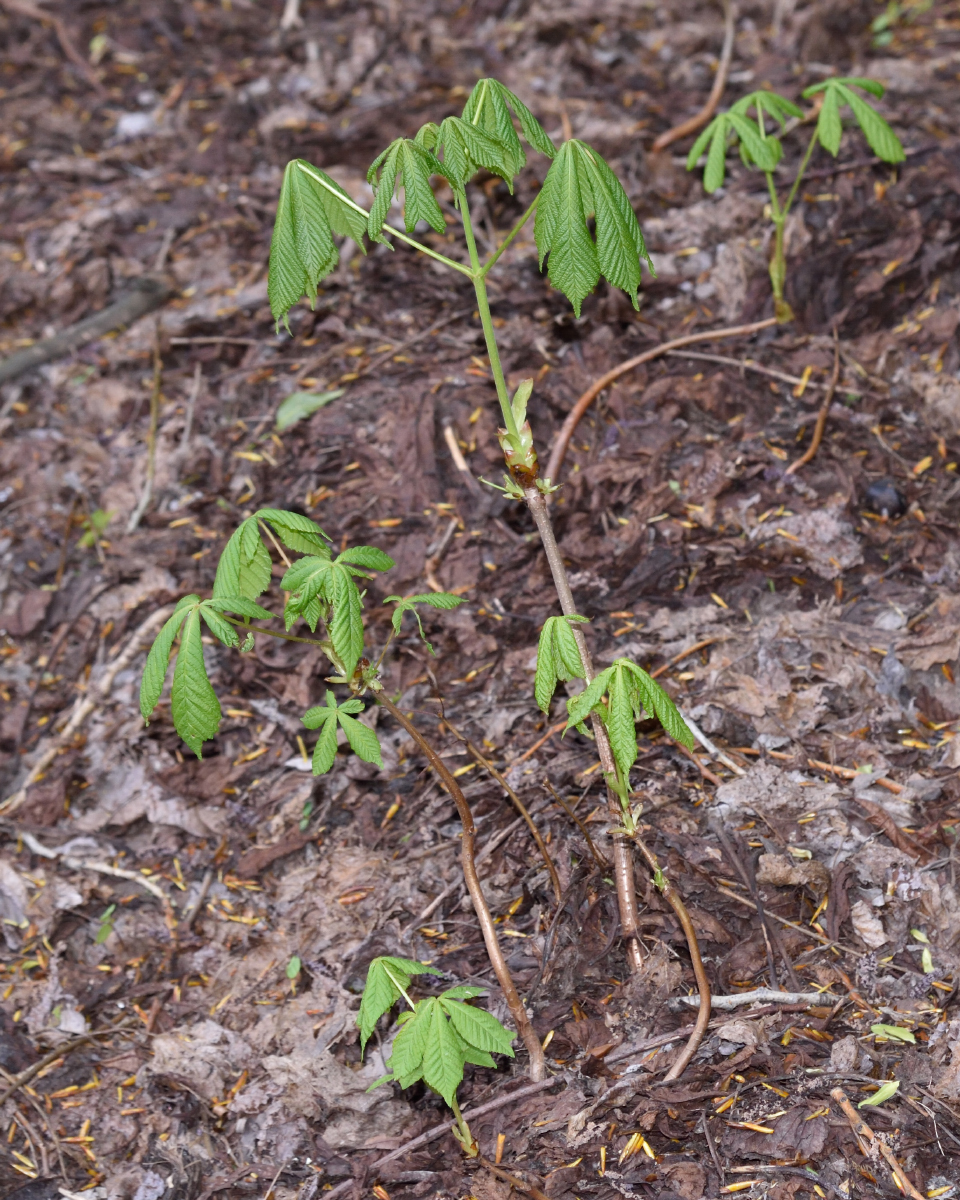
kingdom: Plantae
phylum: Tracheophyta
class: Magnoliopsida
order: Sapindales
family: Sapindaceae
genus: Aesculus
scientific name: Aesculus hippocastanum
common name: Horse-chestnut
